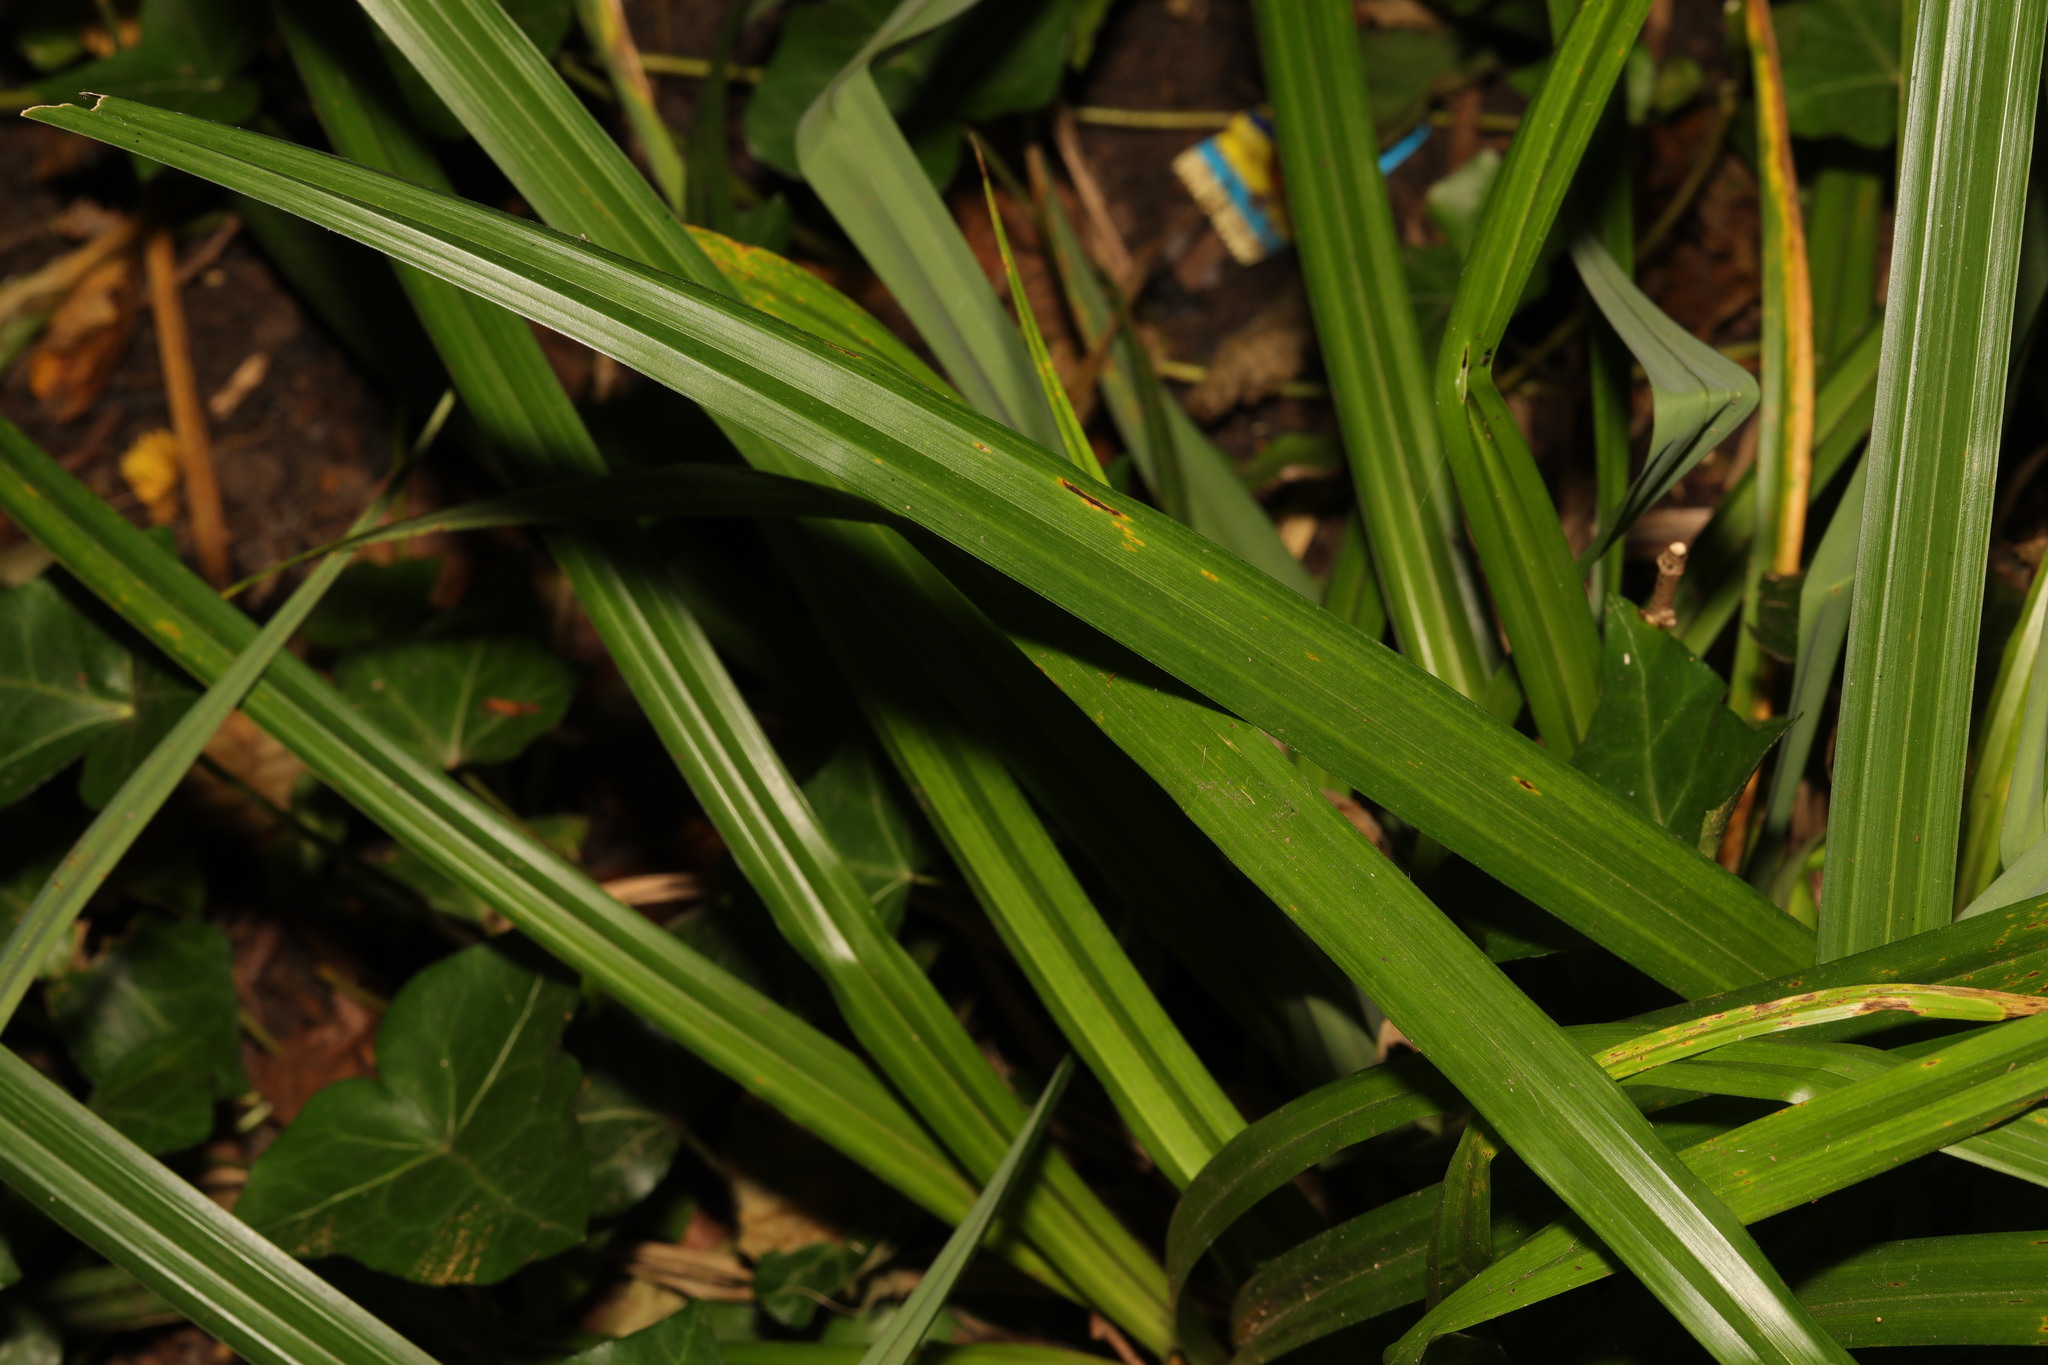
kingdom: Plantae
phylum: Tracheophyta
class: Liliopsida
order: Poales
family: Cyperaceae
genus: Carex
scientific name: Carex pendula
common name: Pendulous sedge
